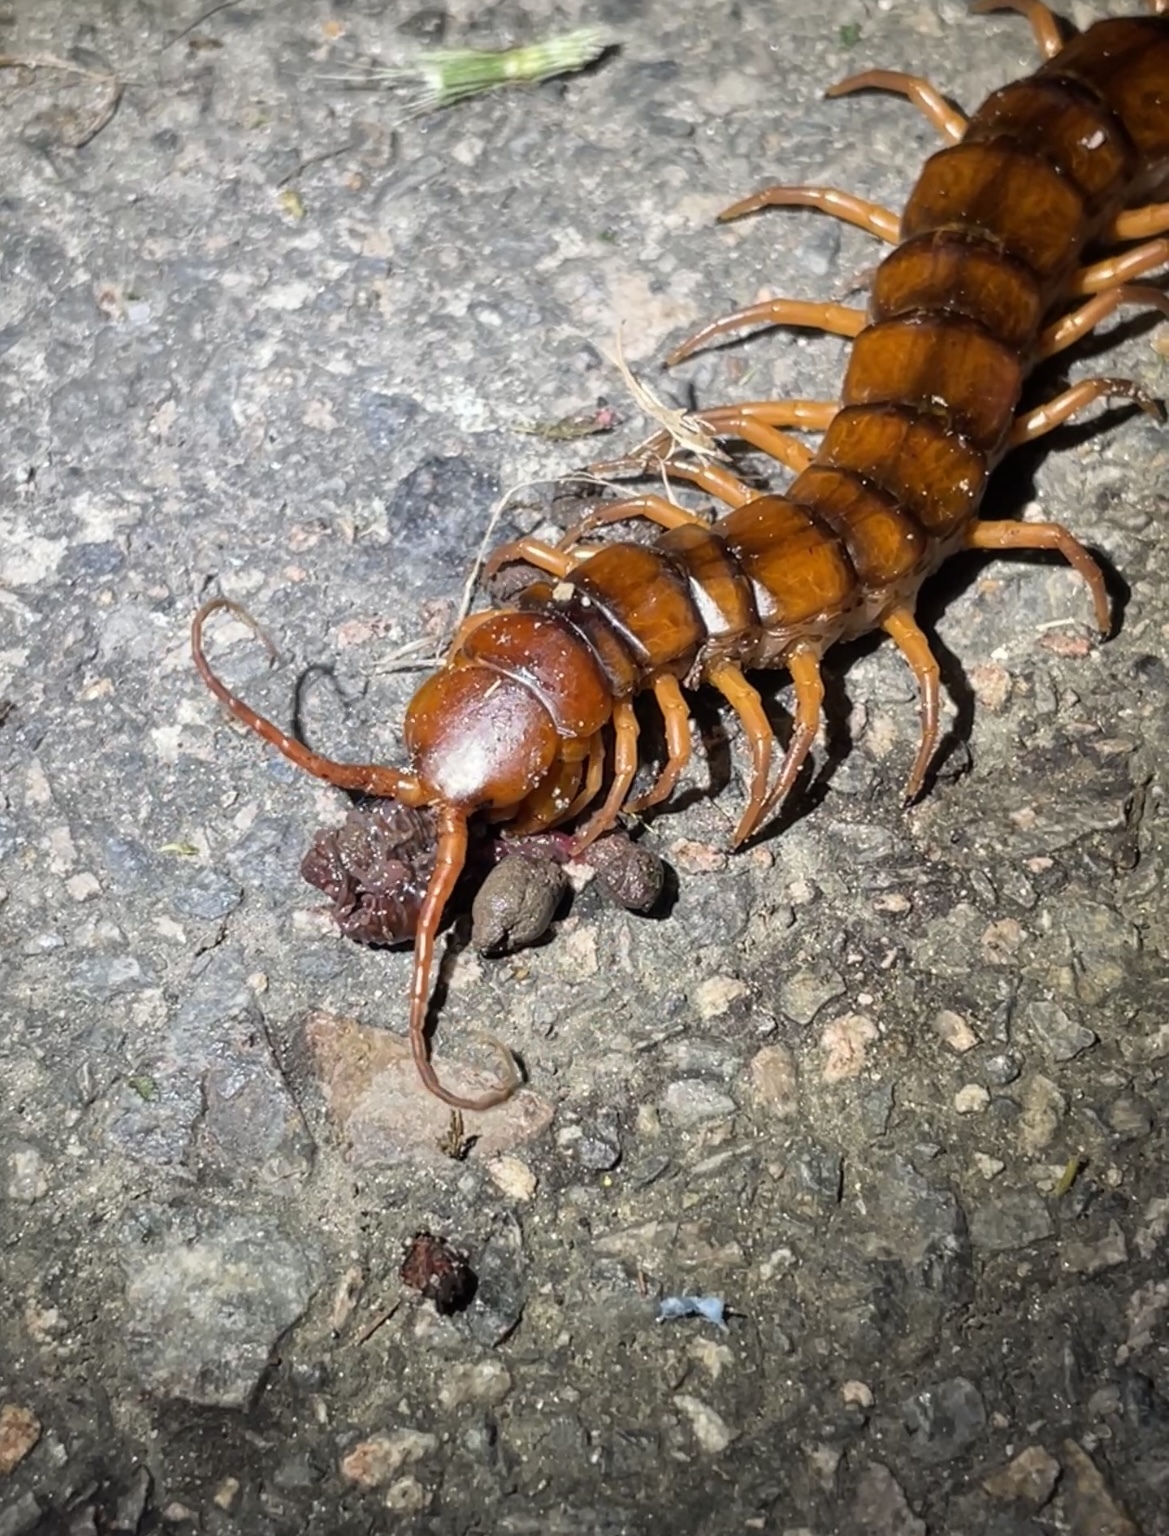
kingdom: Animalia
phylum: Arthropoda
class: Chilopoda
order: Scolopendromorpha
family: Scolopendridae
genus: Scolopendra
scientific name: Scolopendra dehaani
